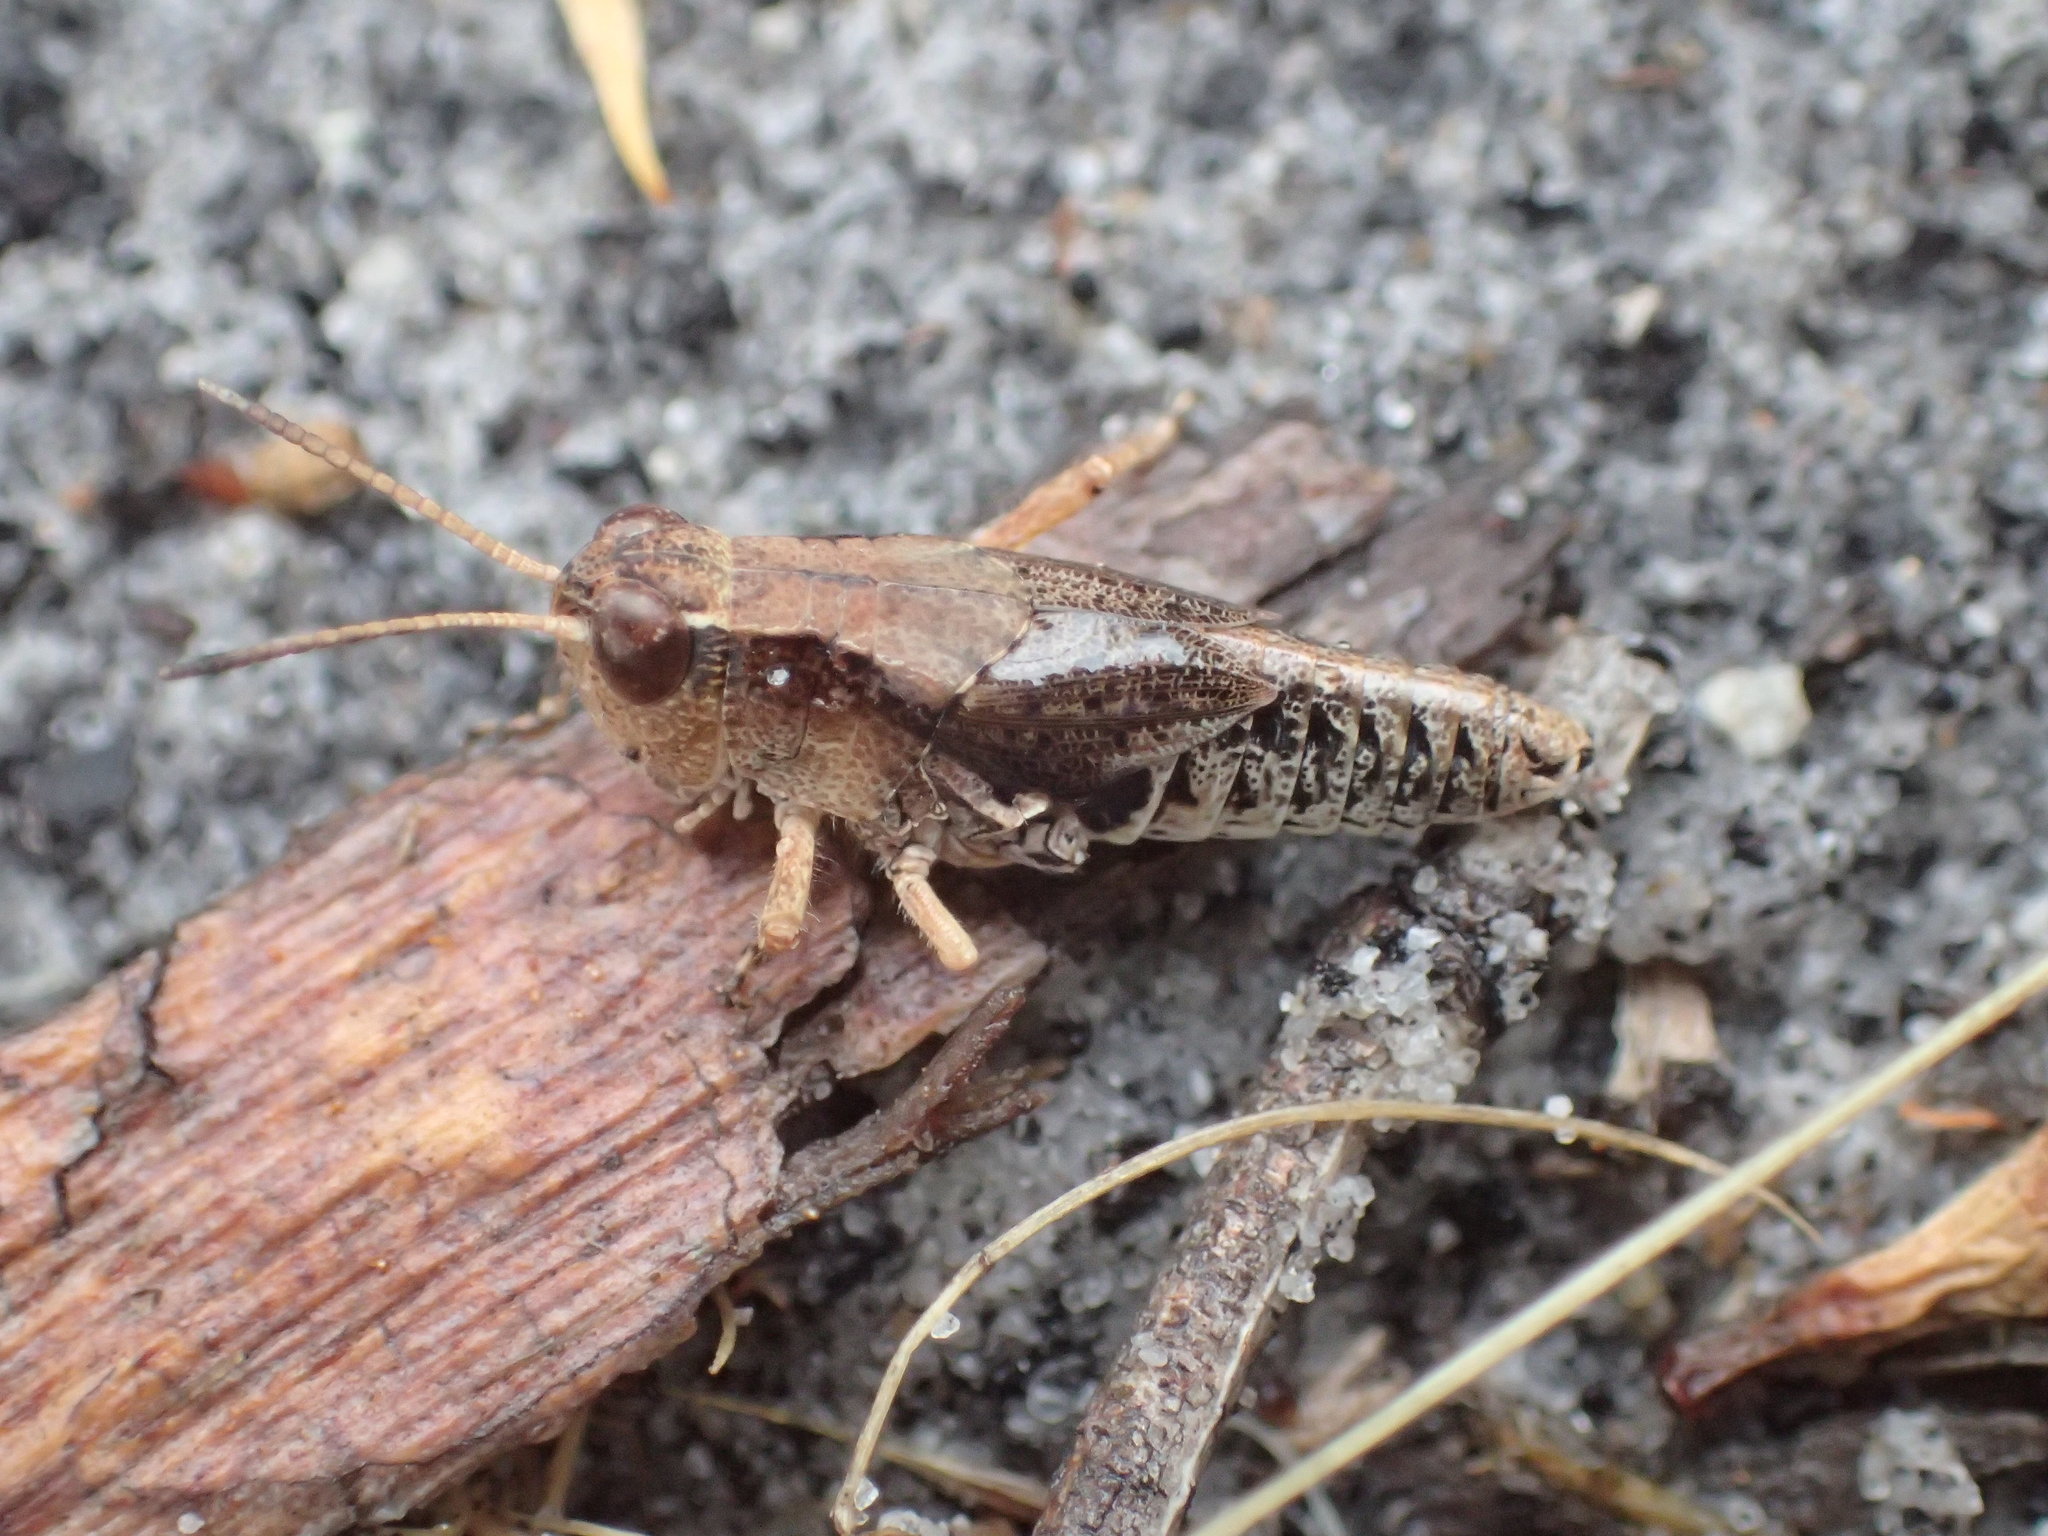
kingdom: Animalia
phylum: Arthropoda
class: Insecta
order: Orthoptera
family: Acrididae
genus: Phaulacridium
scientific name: Phaulacridium vittatum
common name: Wingless grasshopper
